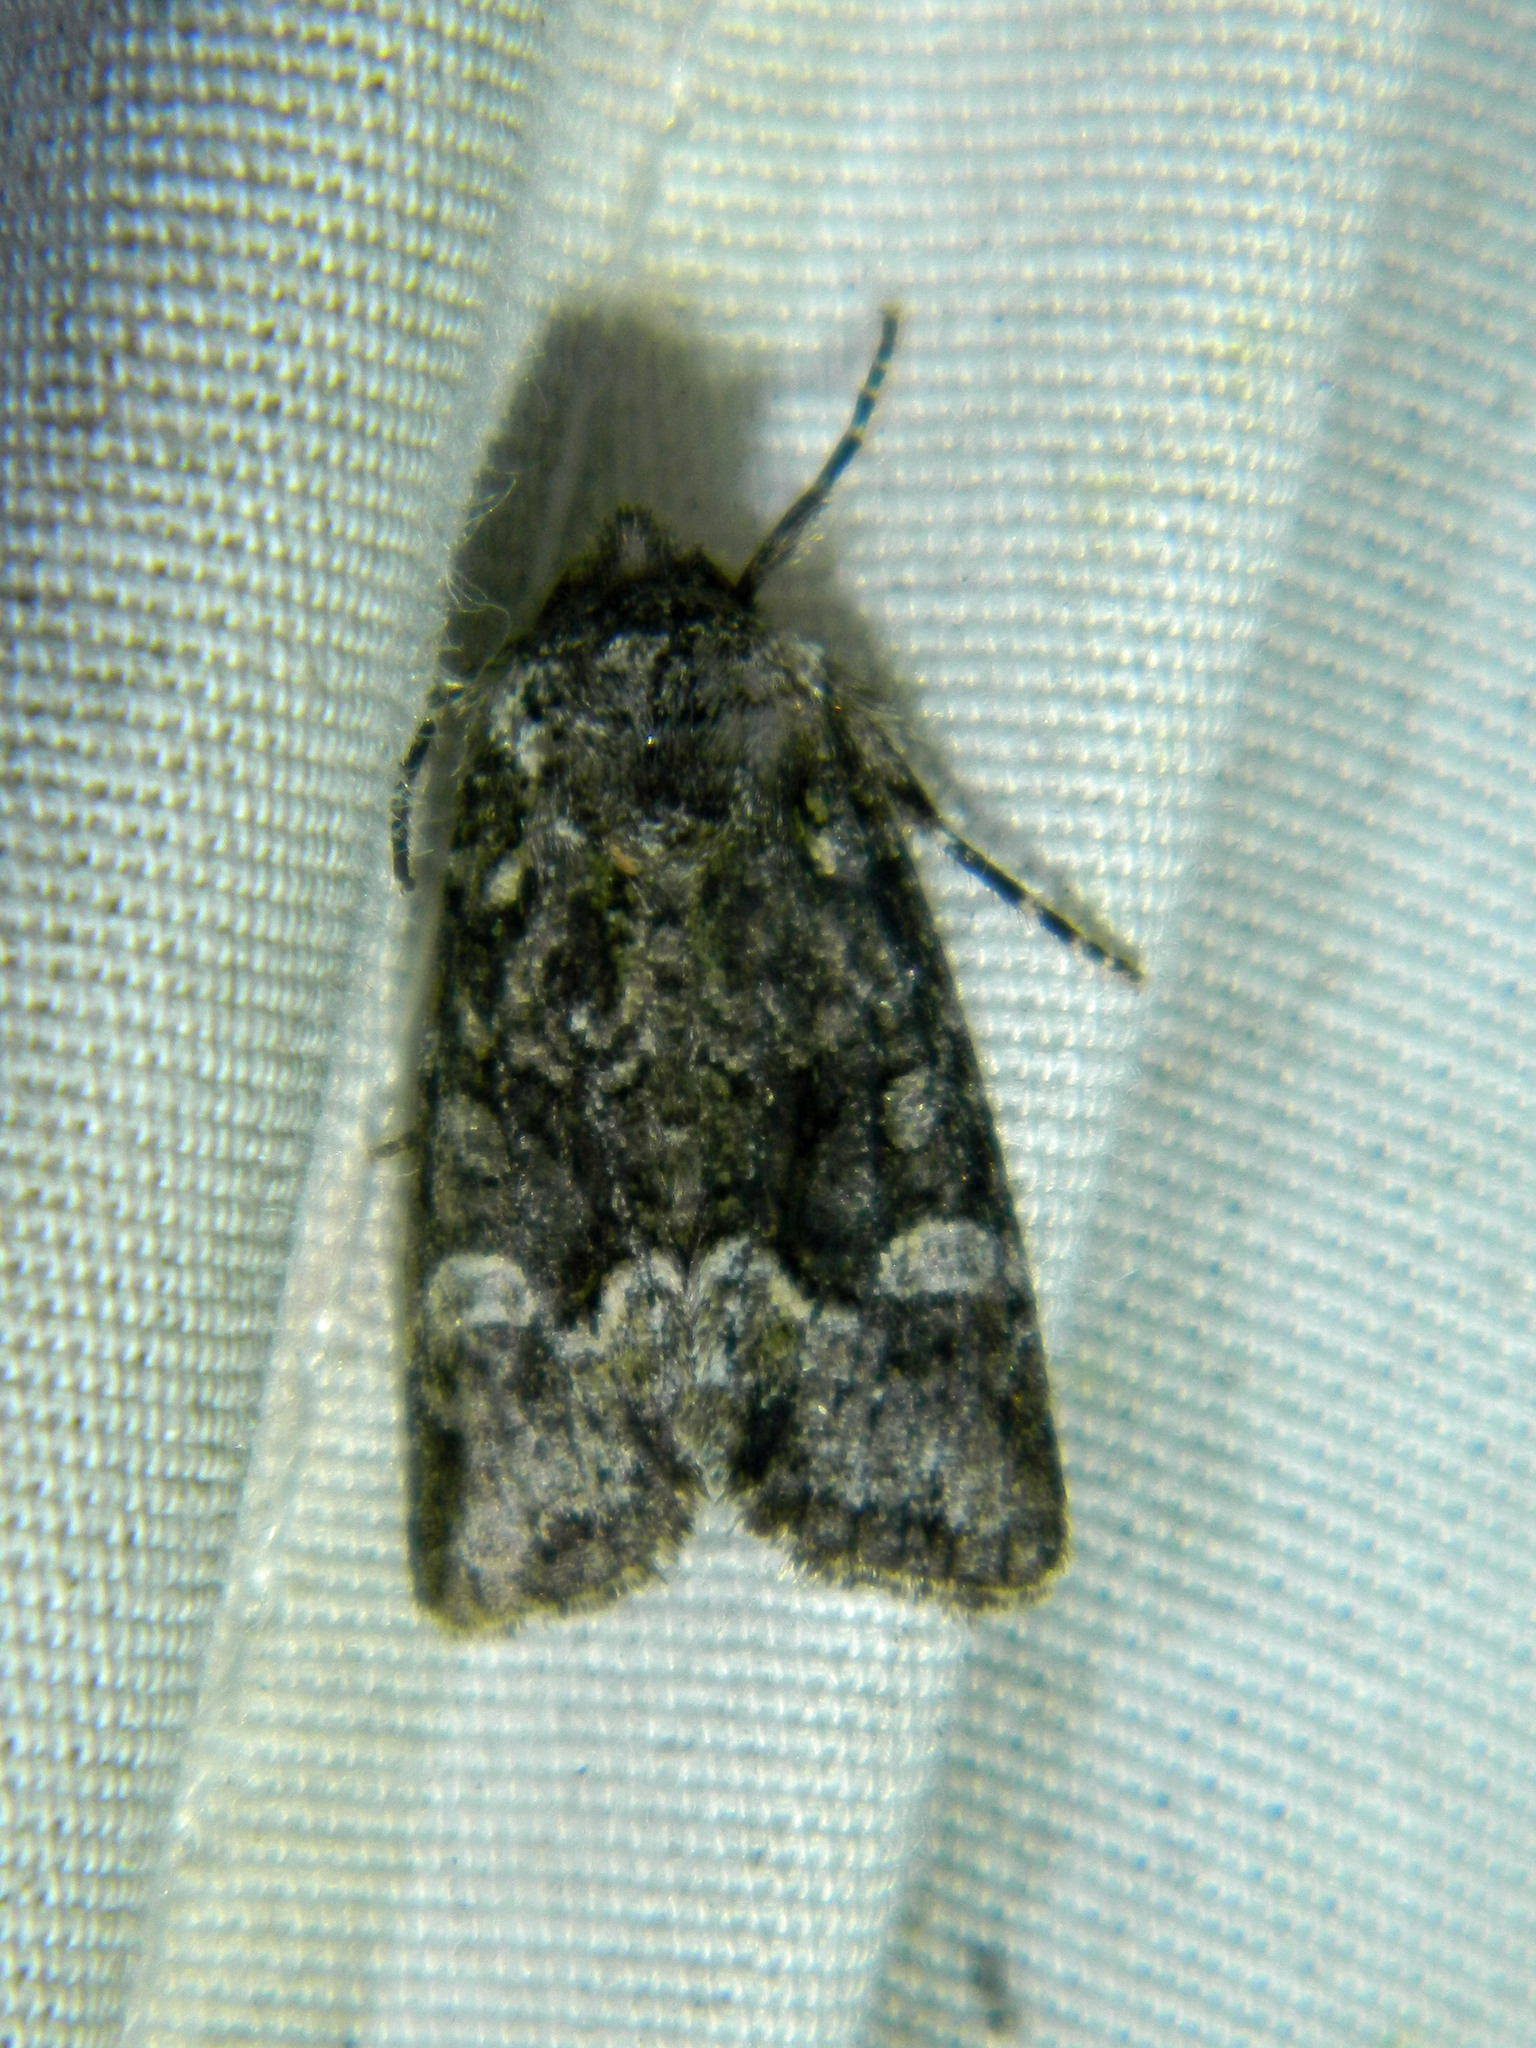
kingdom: Animalia
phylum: Arthropoda
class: Insecta
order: Lepidoptera
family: Noctuidae
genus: Lacinipolia
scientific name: Lacinipolia olivacea
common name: Olive arches moth
